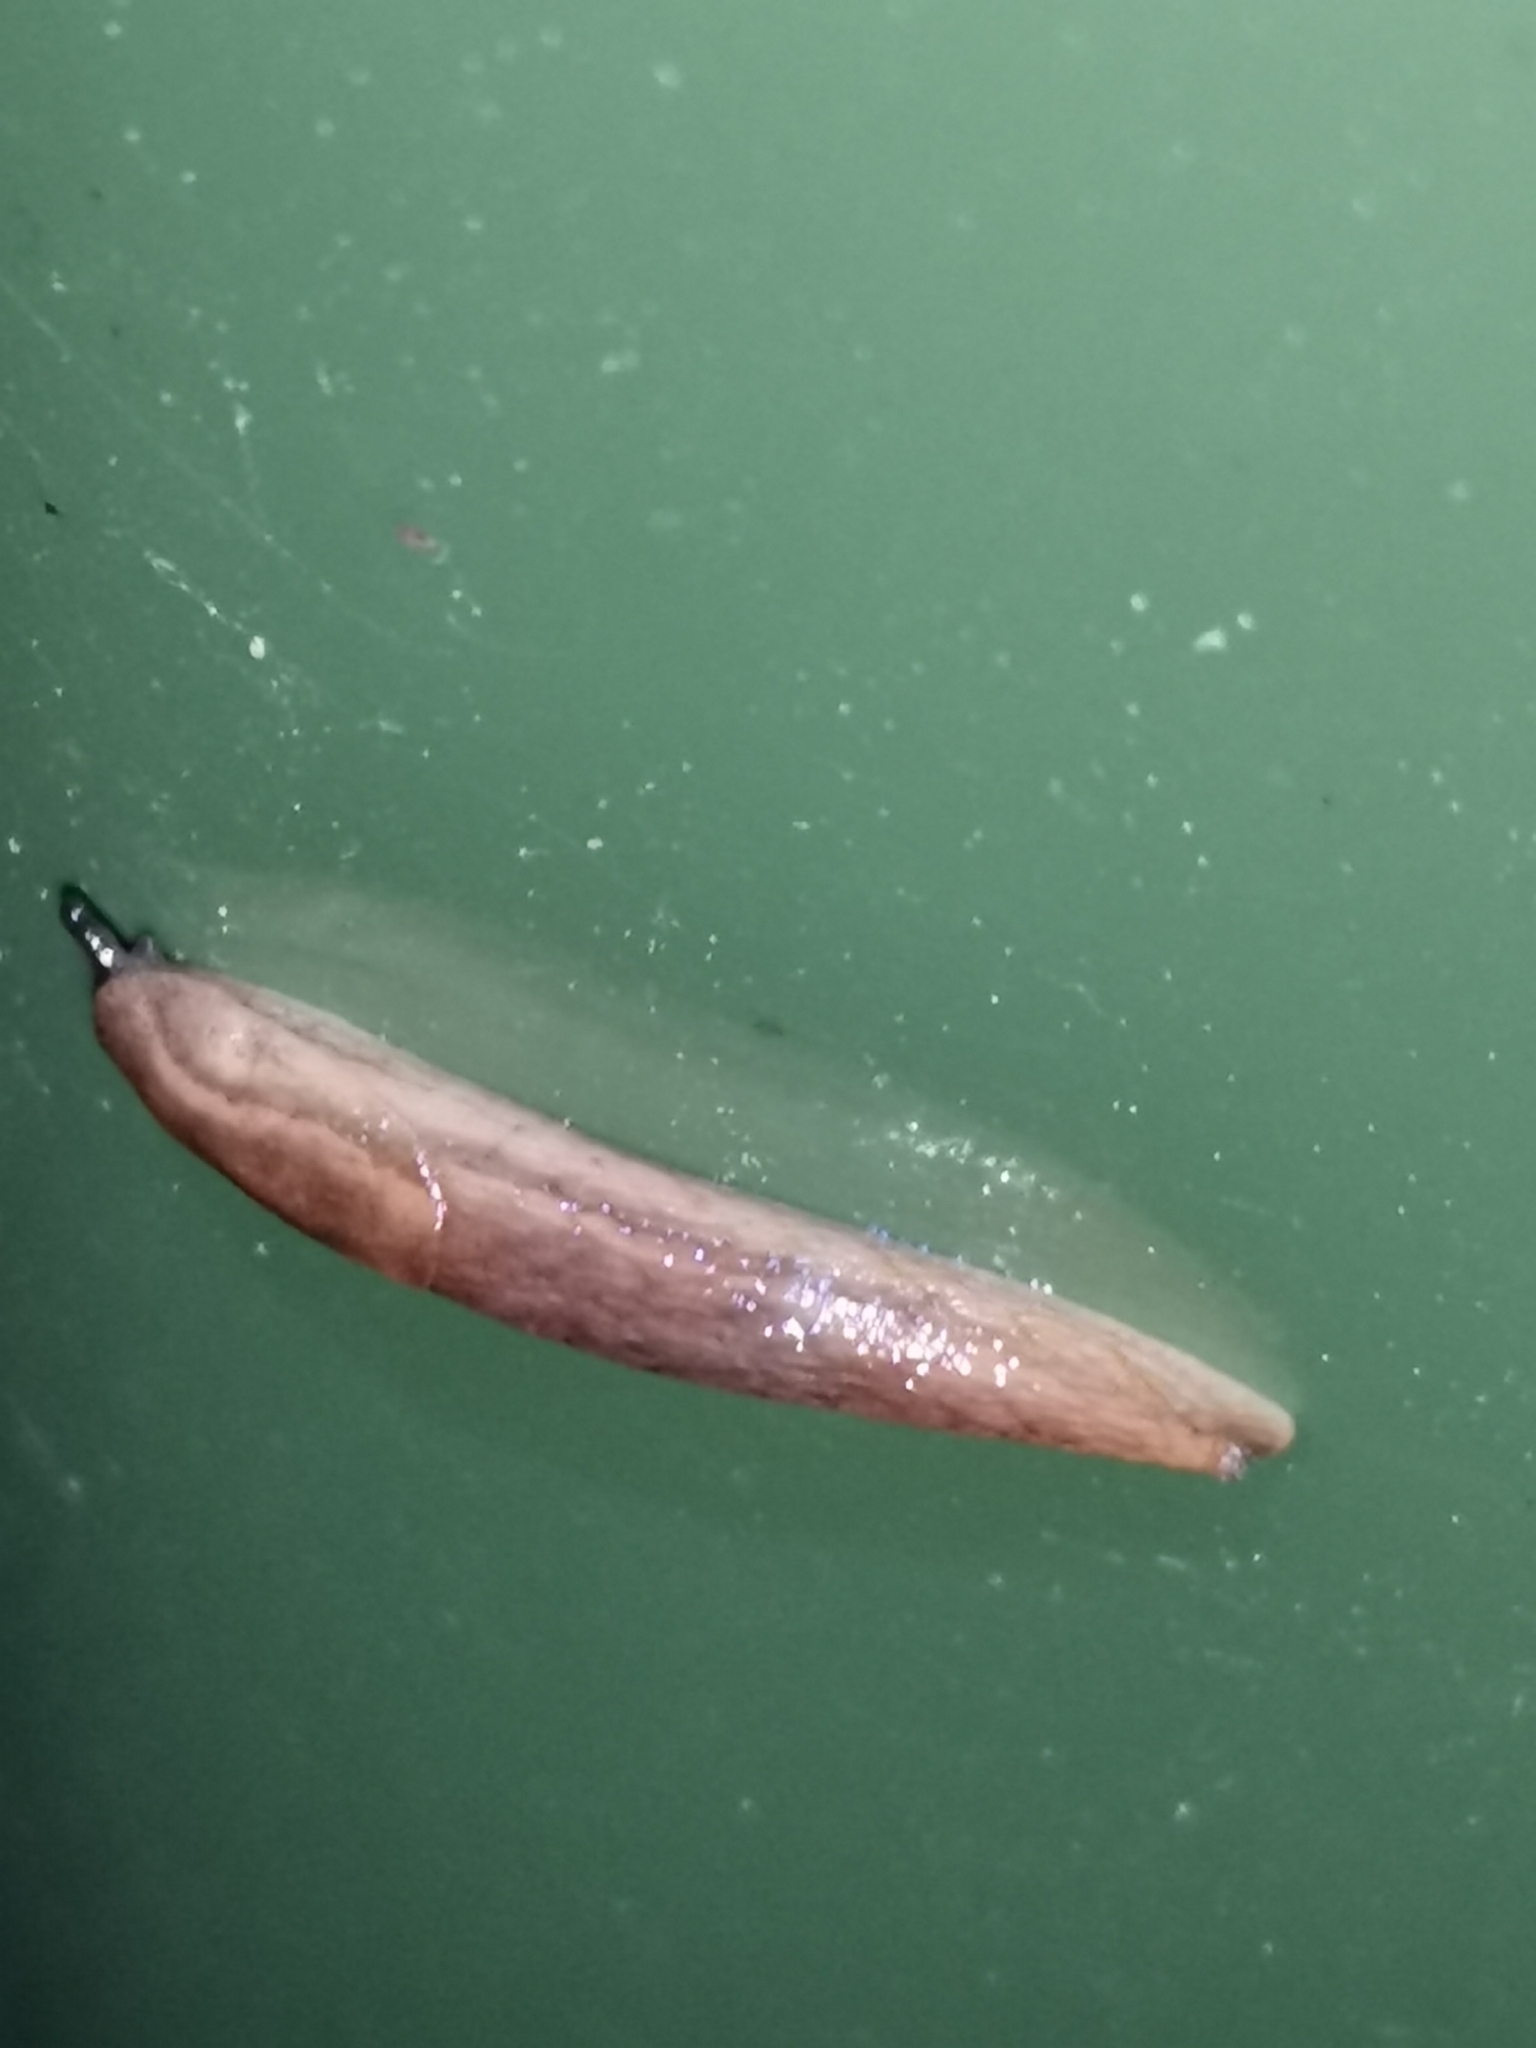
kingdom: Animalia
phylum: Mollusca
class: Gastropoda
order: Stylommatophora
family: Arionidae
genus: Arion
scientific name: Arion fuscus
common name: Northern dusky slug
